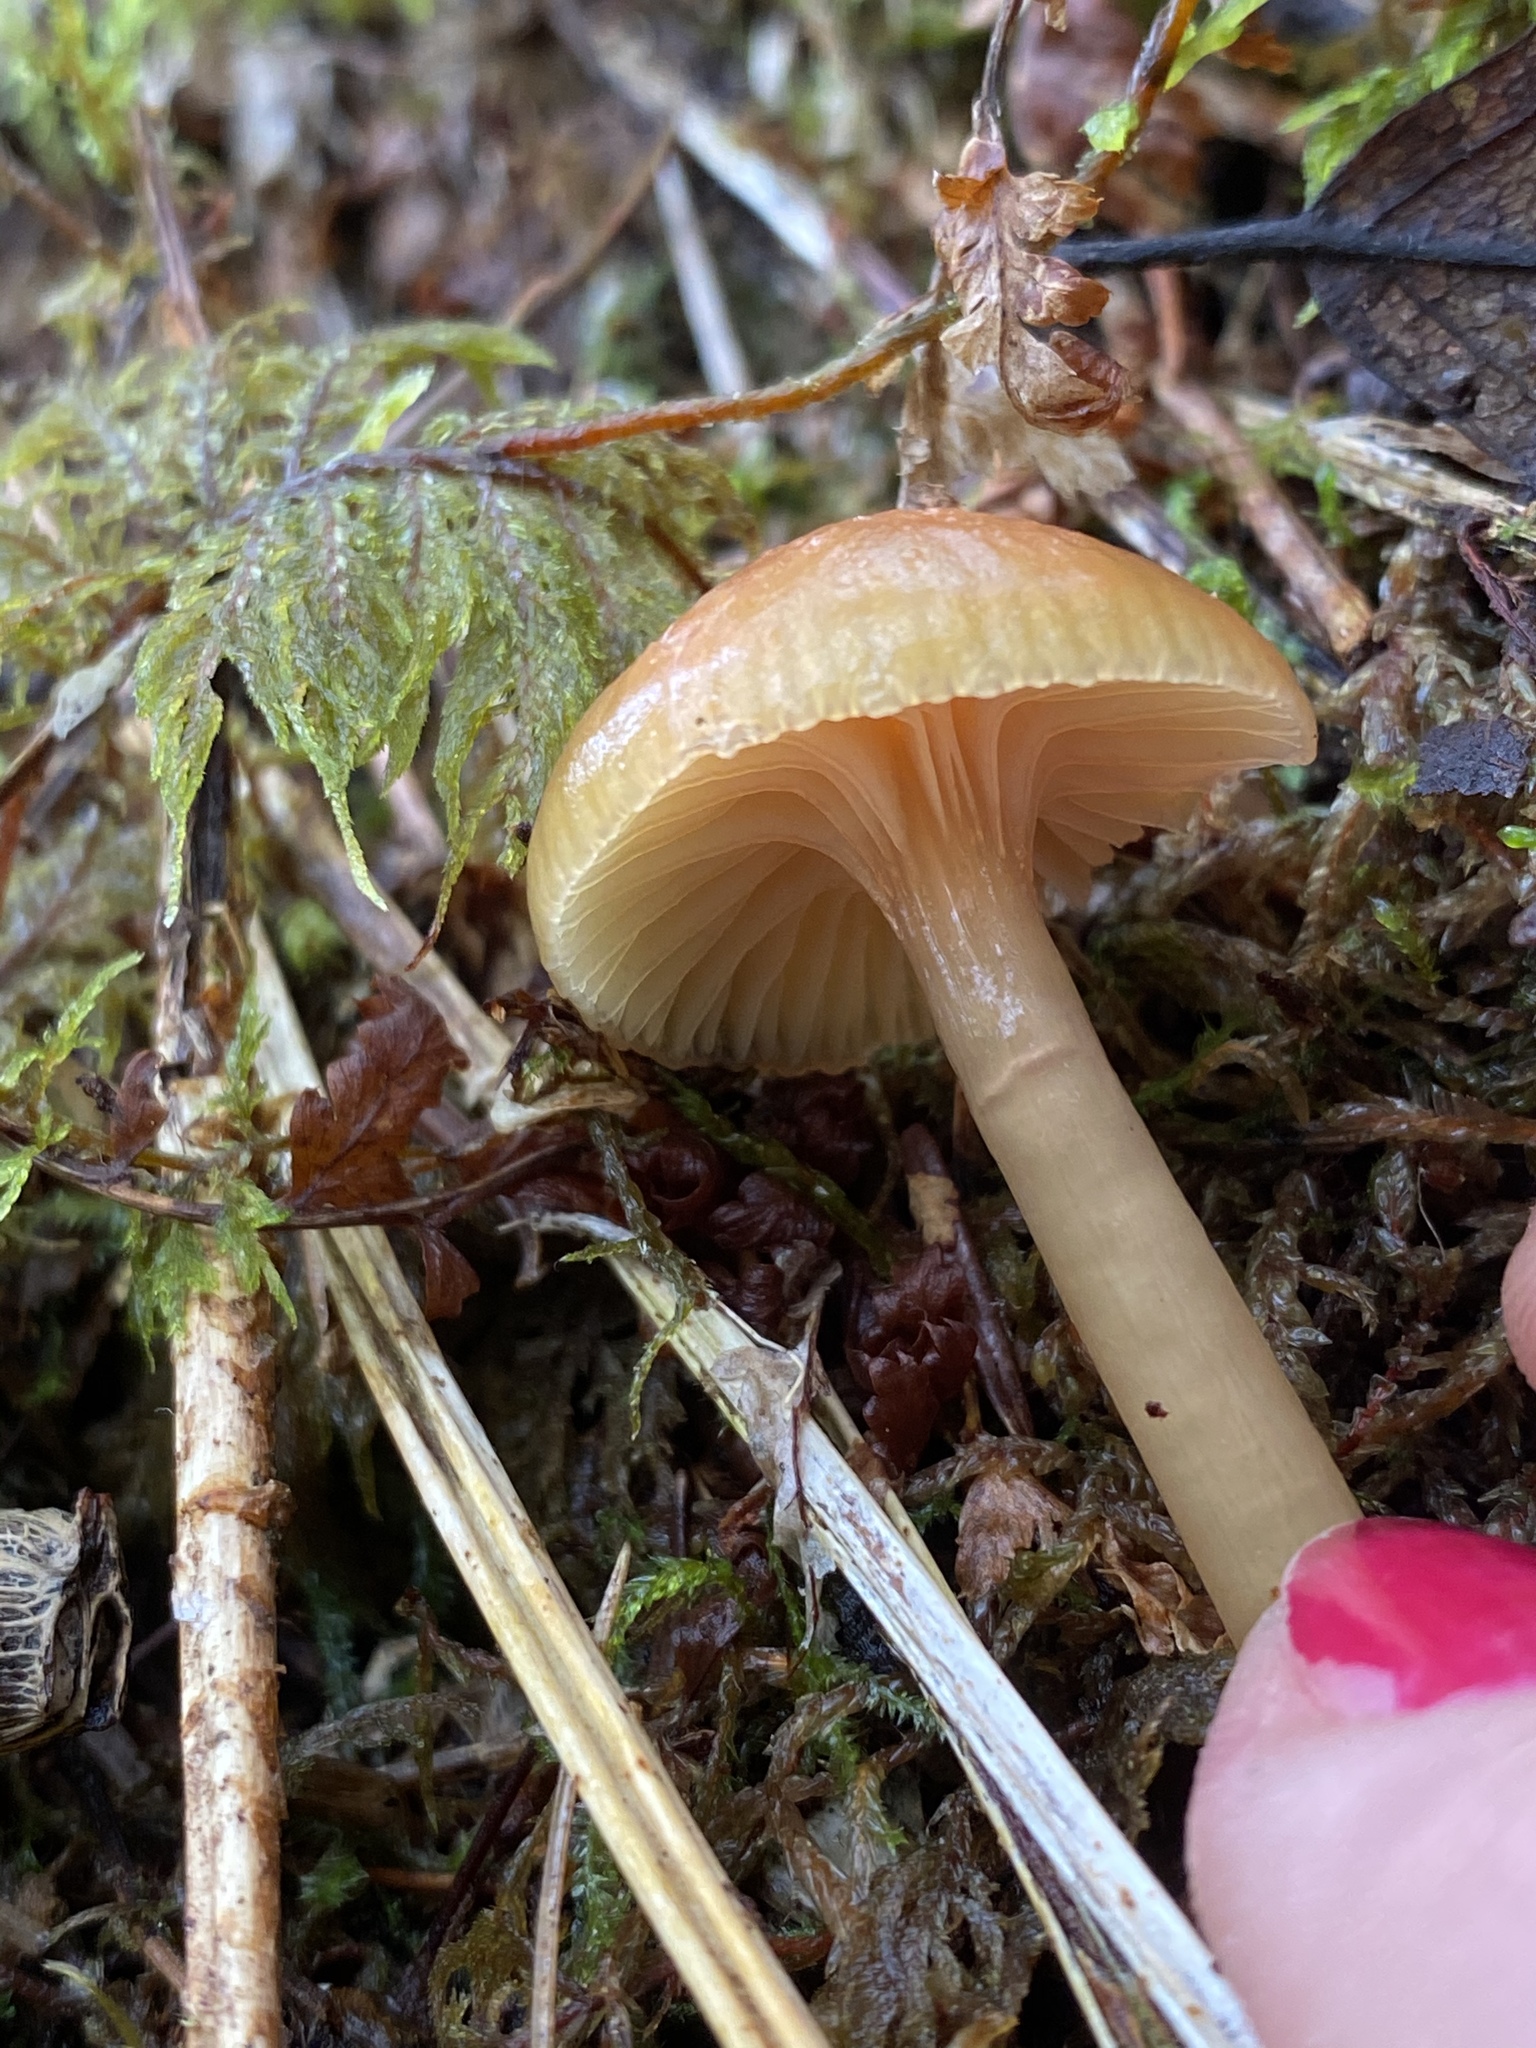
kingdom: Fungi
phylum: Basidiomycota
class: Agaricomycetes
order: Agaricales
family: Hygrophoraceae
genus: Gliophorus
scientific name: Gliophorus laetus
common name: Heath waxcap
